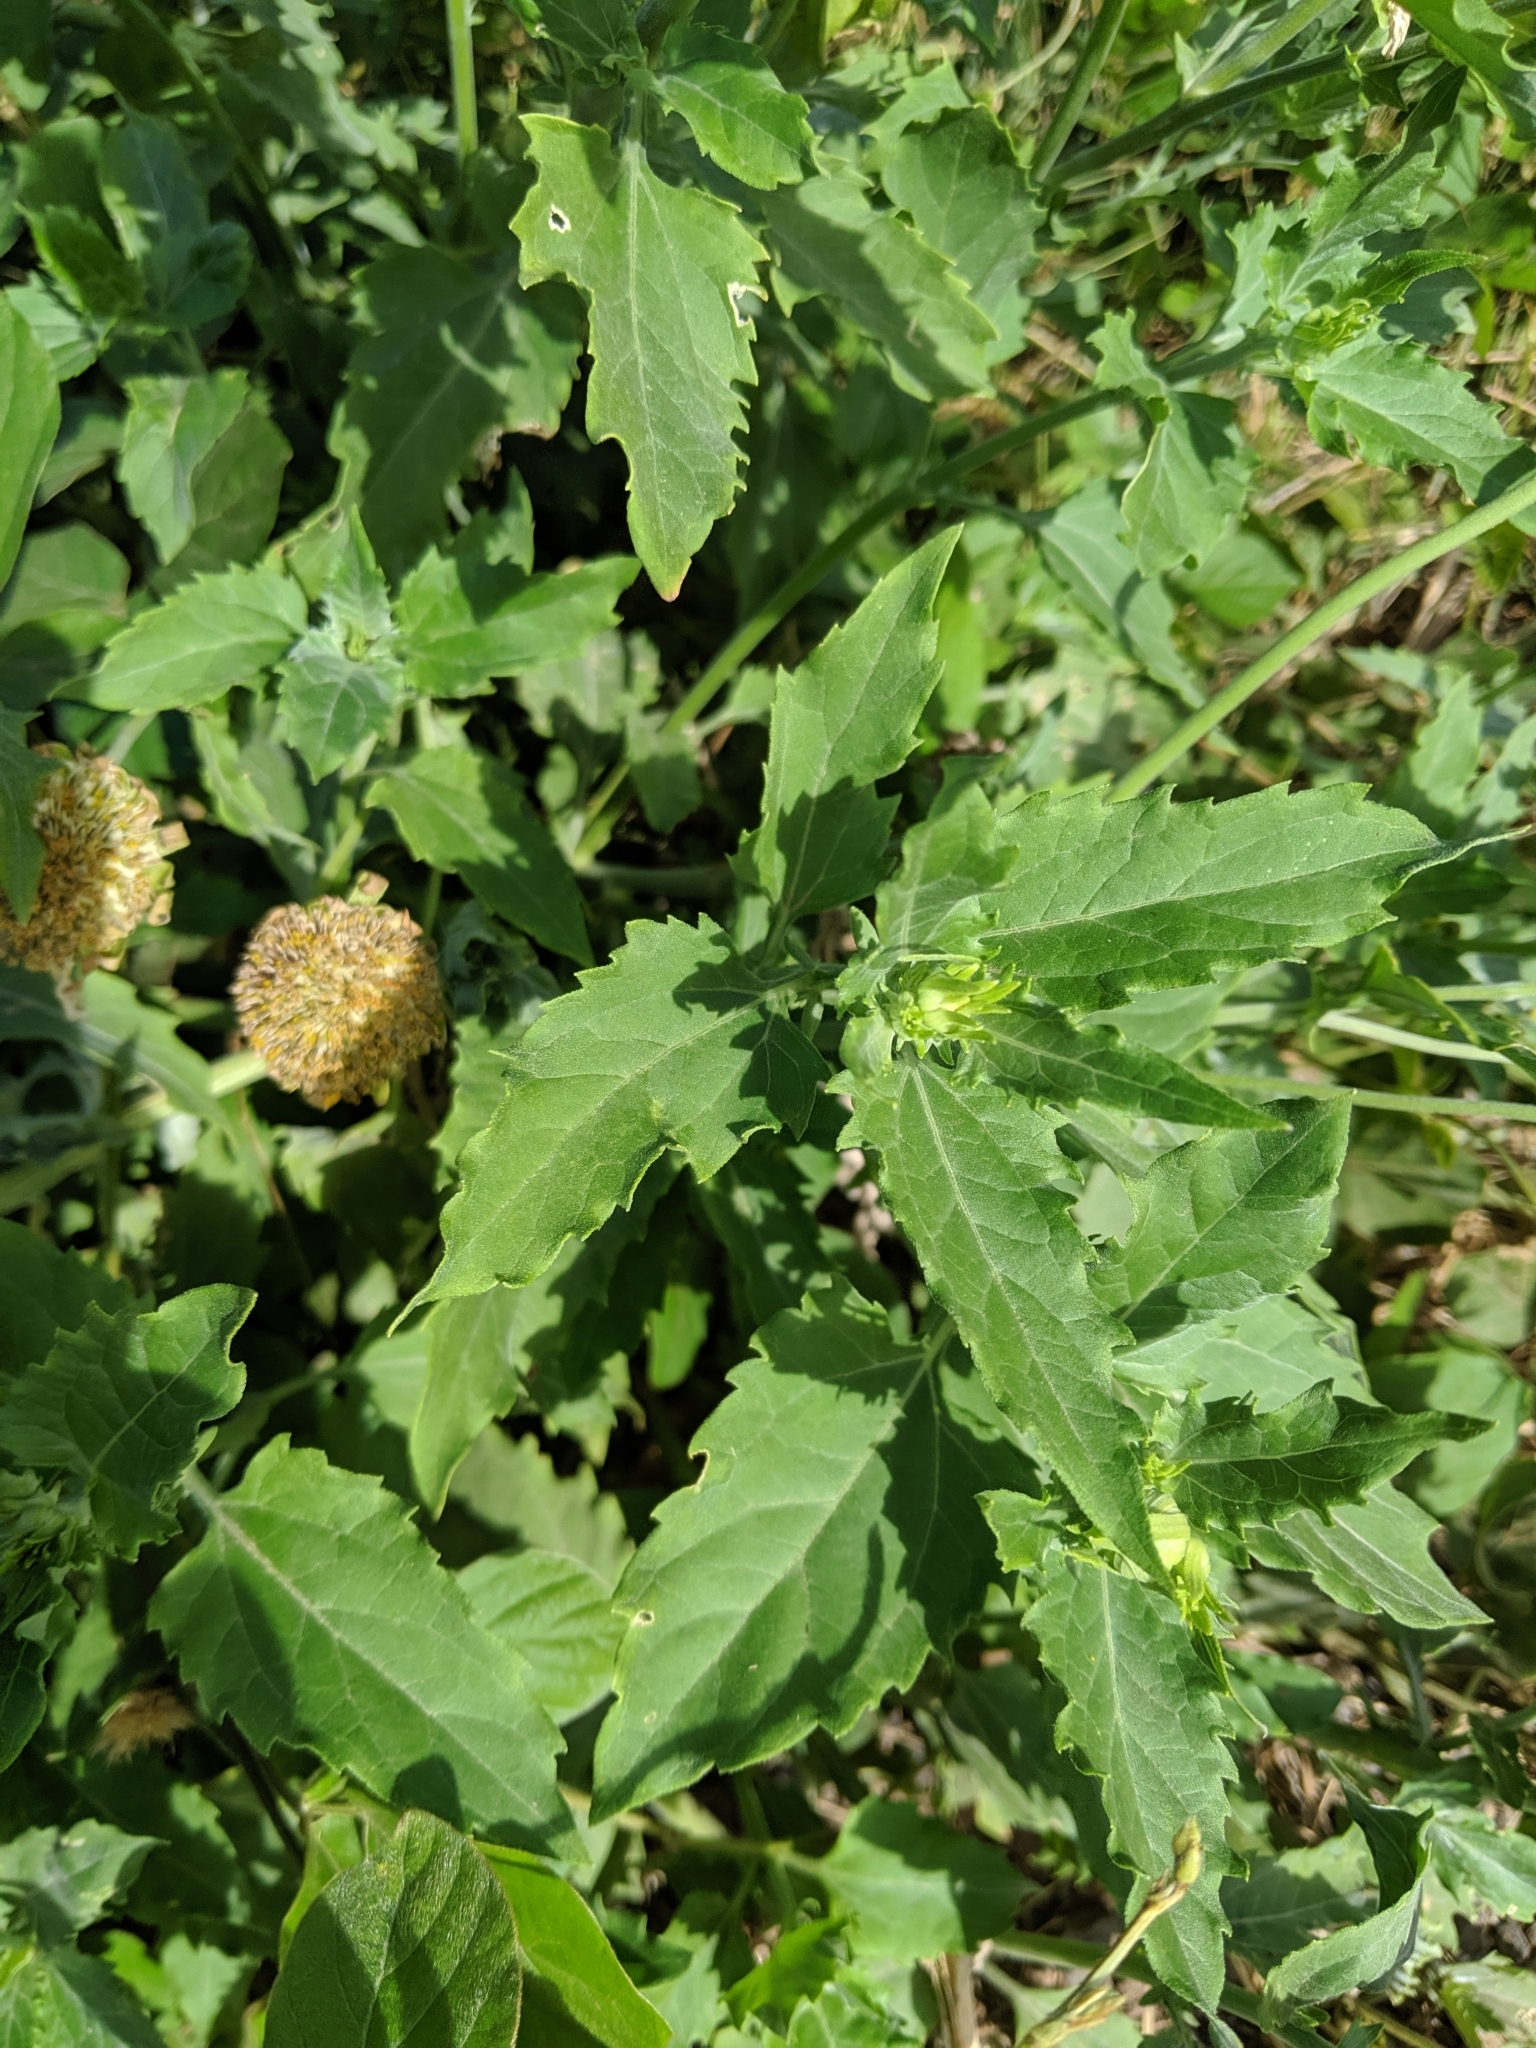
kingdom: Plantae
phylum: Tracheophyta
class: Magnoliopsida
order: Asterales
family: Asteraceae
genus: Verbesina
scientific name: Verbesina encelioides
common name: Golden crownbeard
